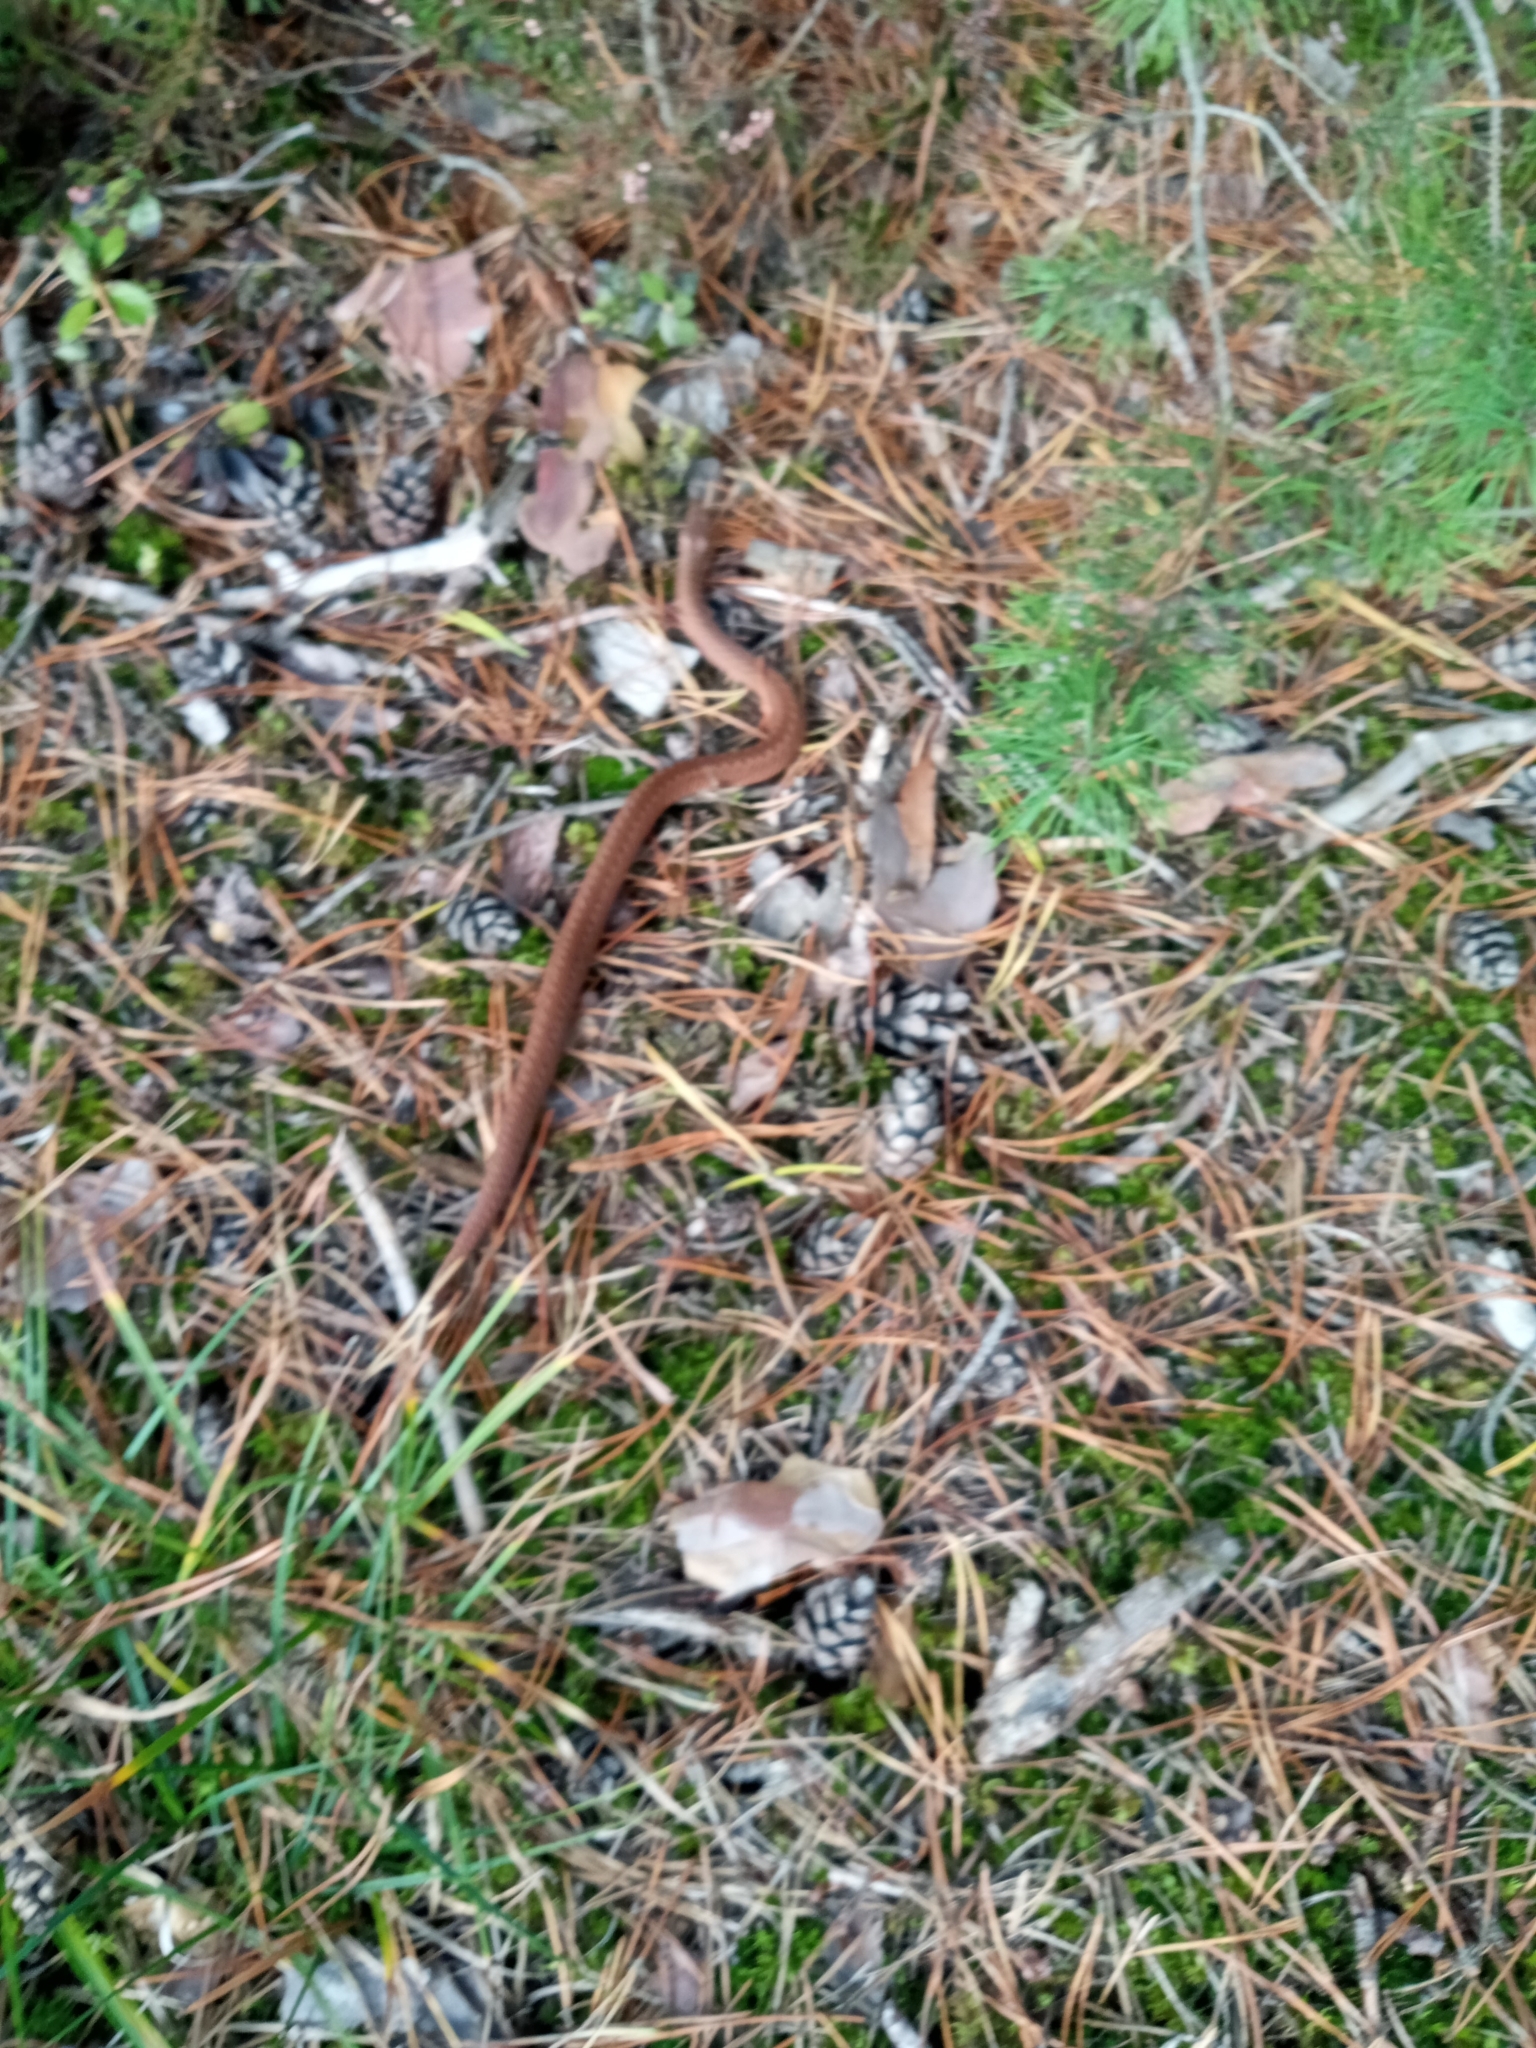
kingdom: Animalia
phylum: Chordata
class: Squamata
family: Viperidae
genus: Vipera
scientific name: Vipera berus
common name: Adder
